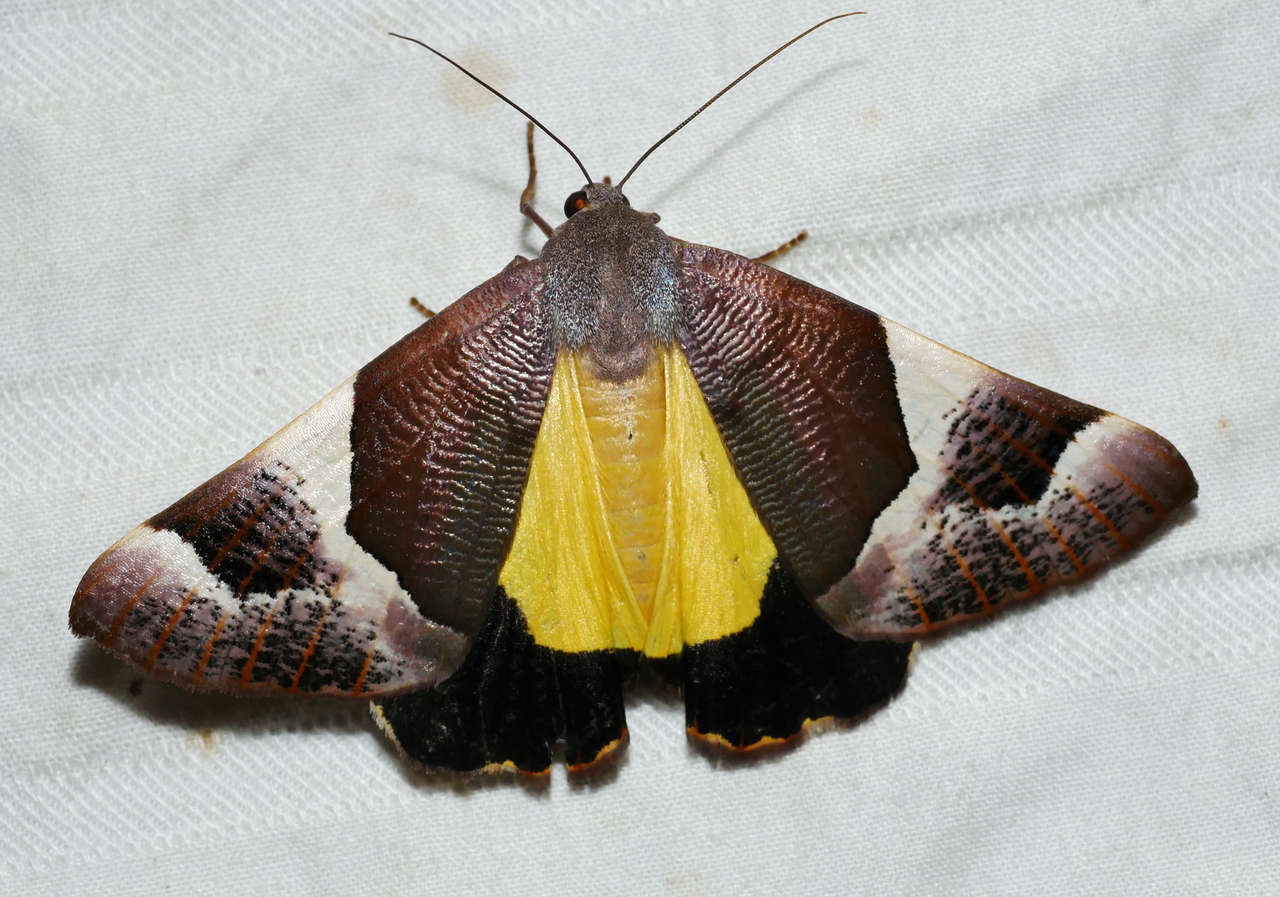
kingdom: Animalia
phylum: Arthropoda
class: Insecta
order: Lepidoptera
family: Geometridae
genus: Niceteria
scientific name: Niceteria macrocosma
